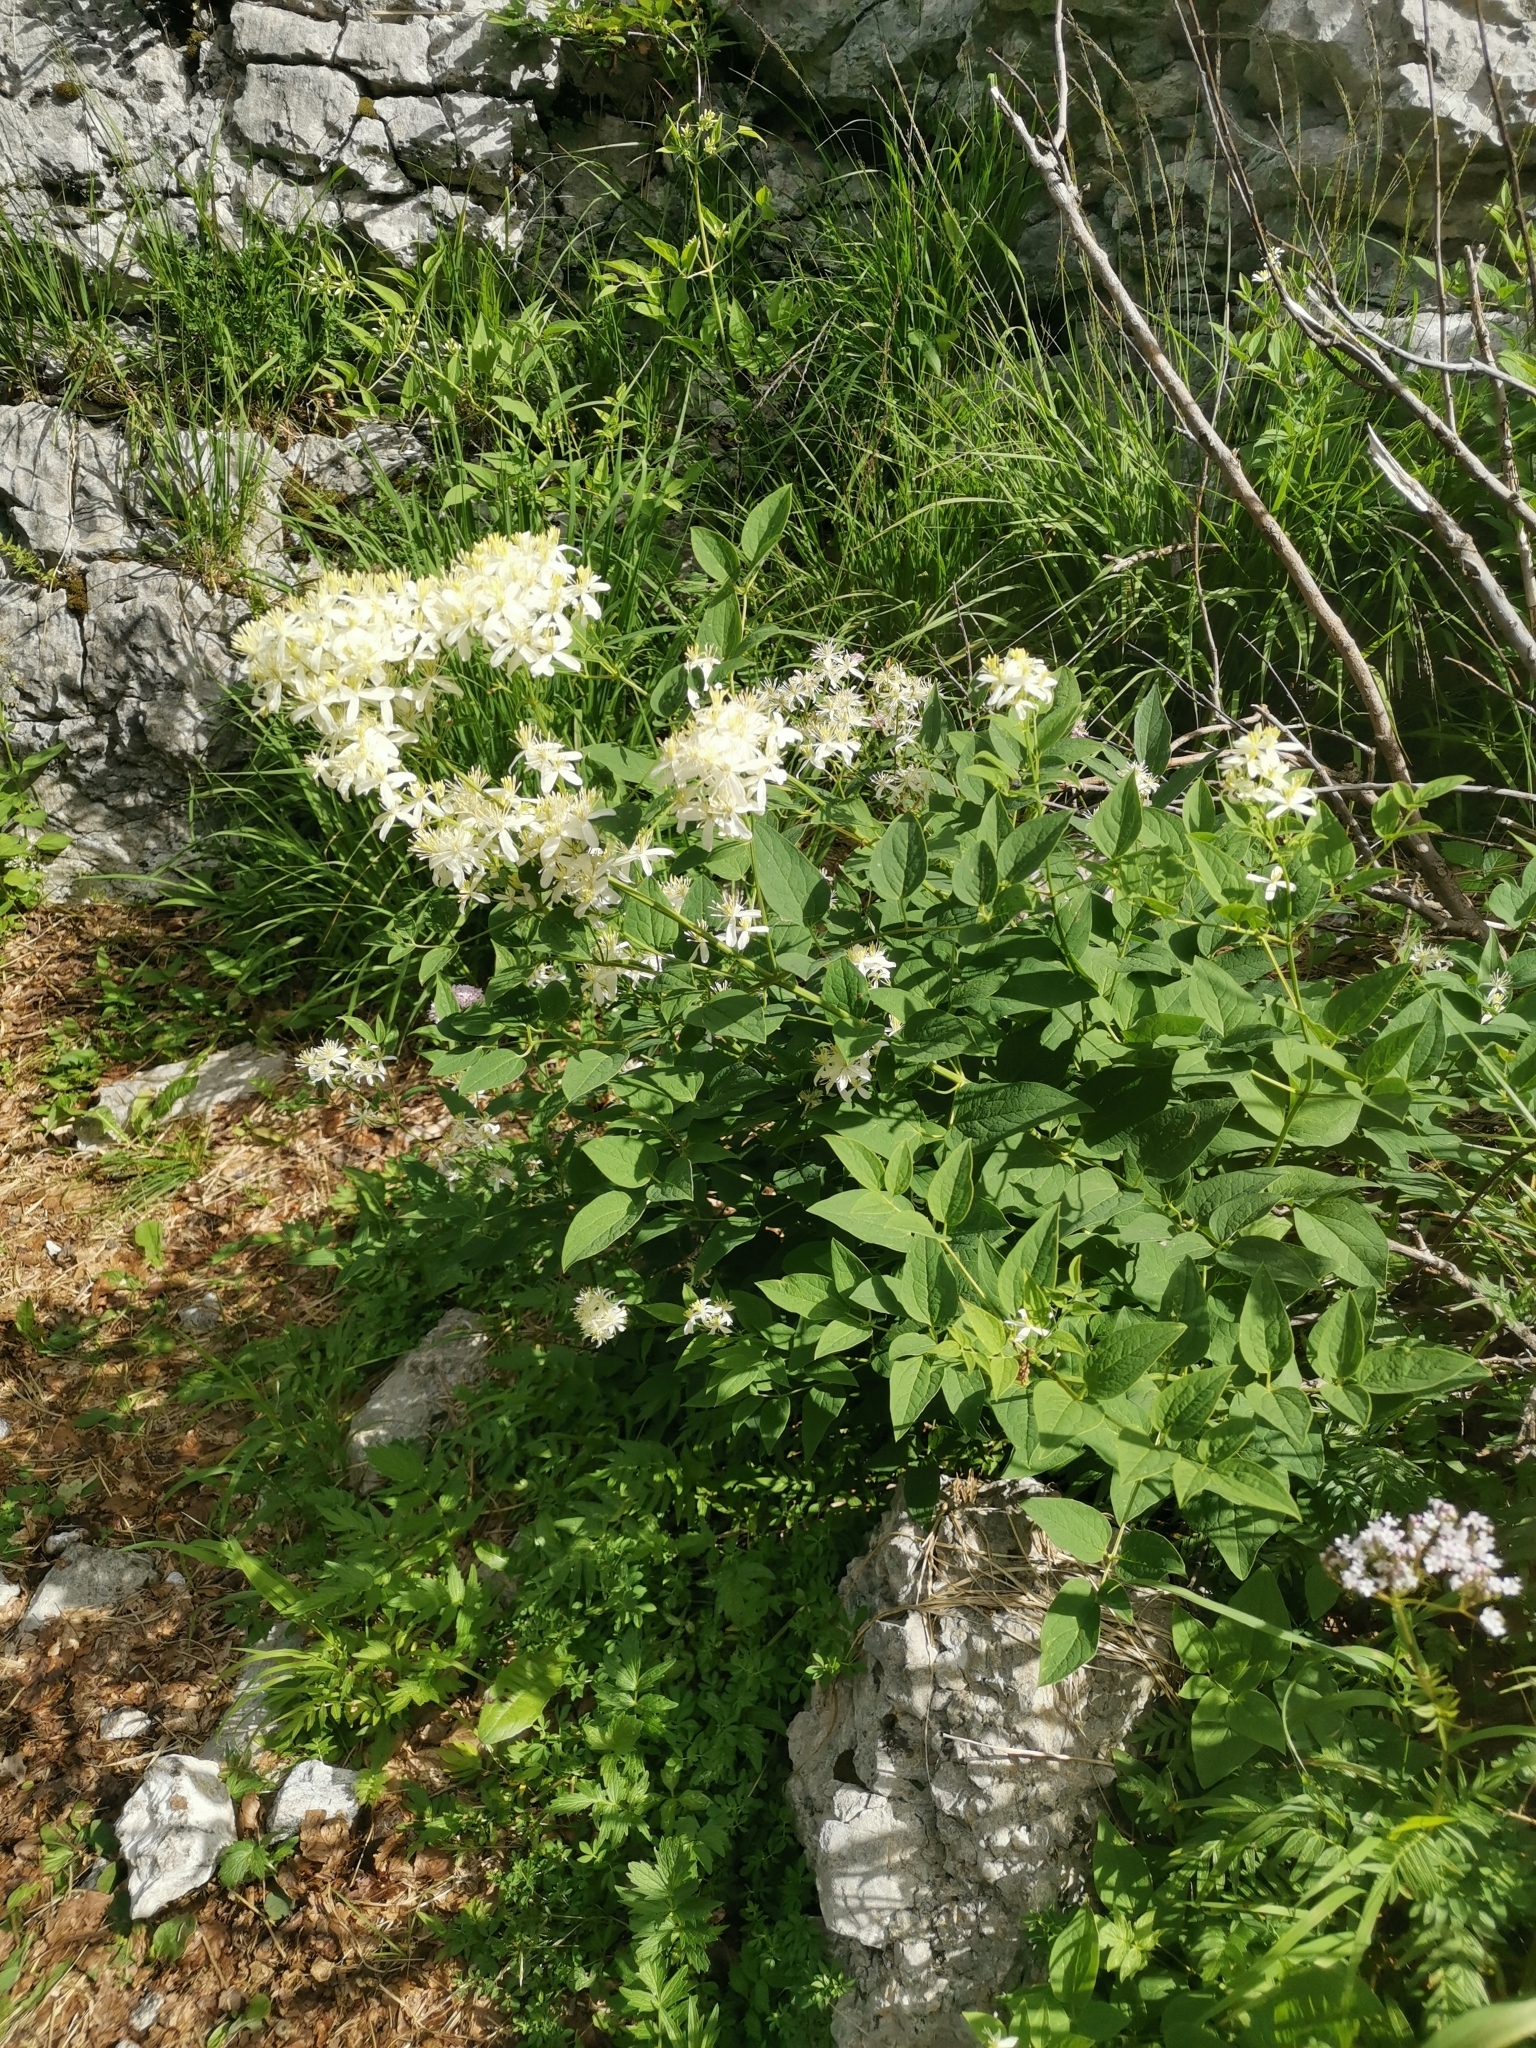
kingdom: Plantae
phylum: Tracheophyta
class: Magnoliopsida
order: Ranunculales
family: Ranunculaceae
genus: Clematis
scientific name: Clematis recta
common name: Ground clematis
